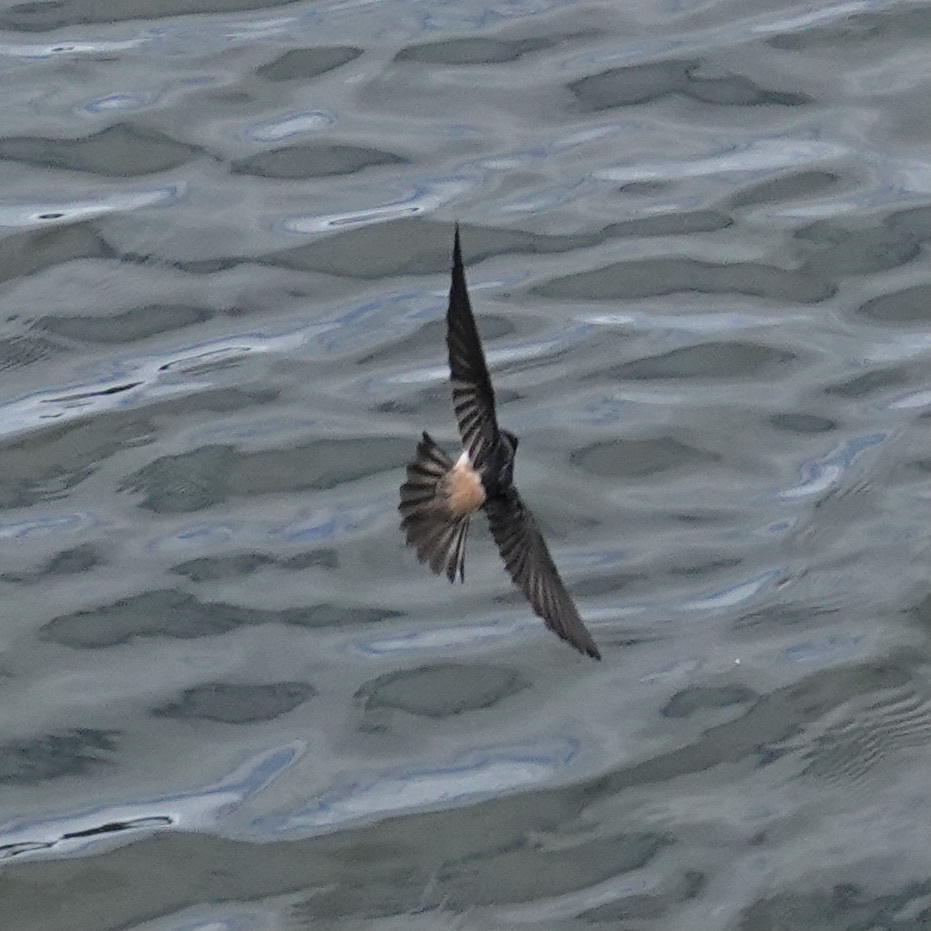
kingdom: Animalia
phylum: Chordata
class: Aves
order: Passeriformes
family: Hirundinidae
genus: Petrochelidon
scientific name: Petrochelidon pyrrhonota
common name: American cliff swallow
